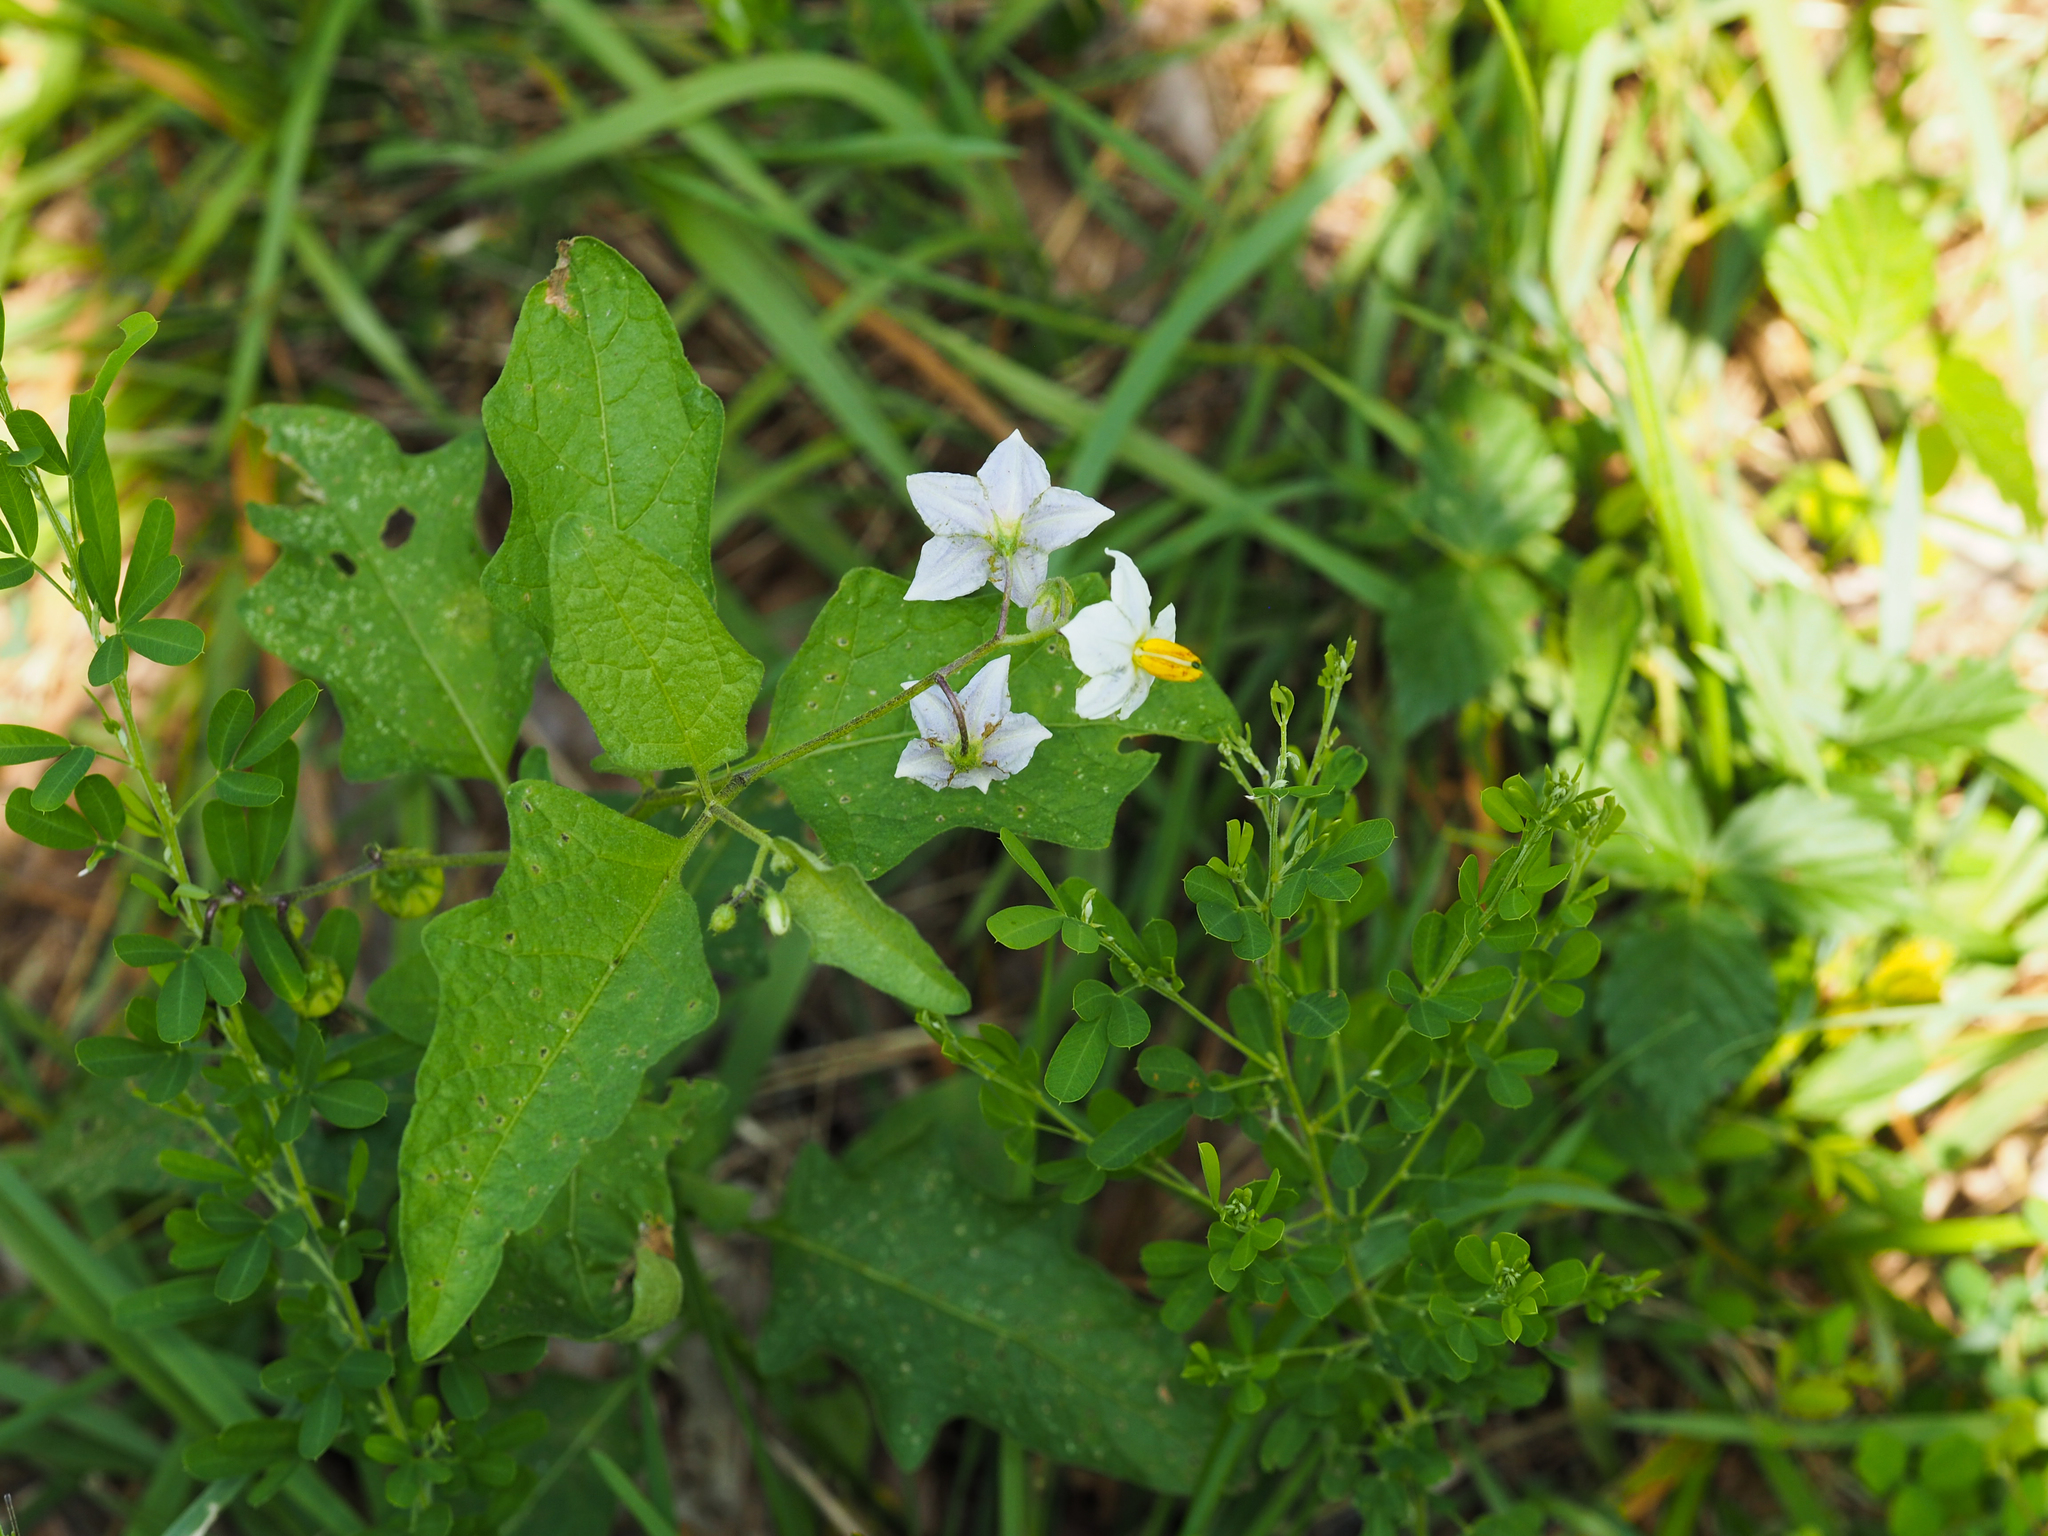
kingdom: Plantae
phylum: Tracheophyta
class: Magnoliopsida
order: Solanales
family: Solanaceae
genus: Solanum
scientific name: Solanum carolinense
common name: Horse-nettle
